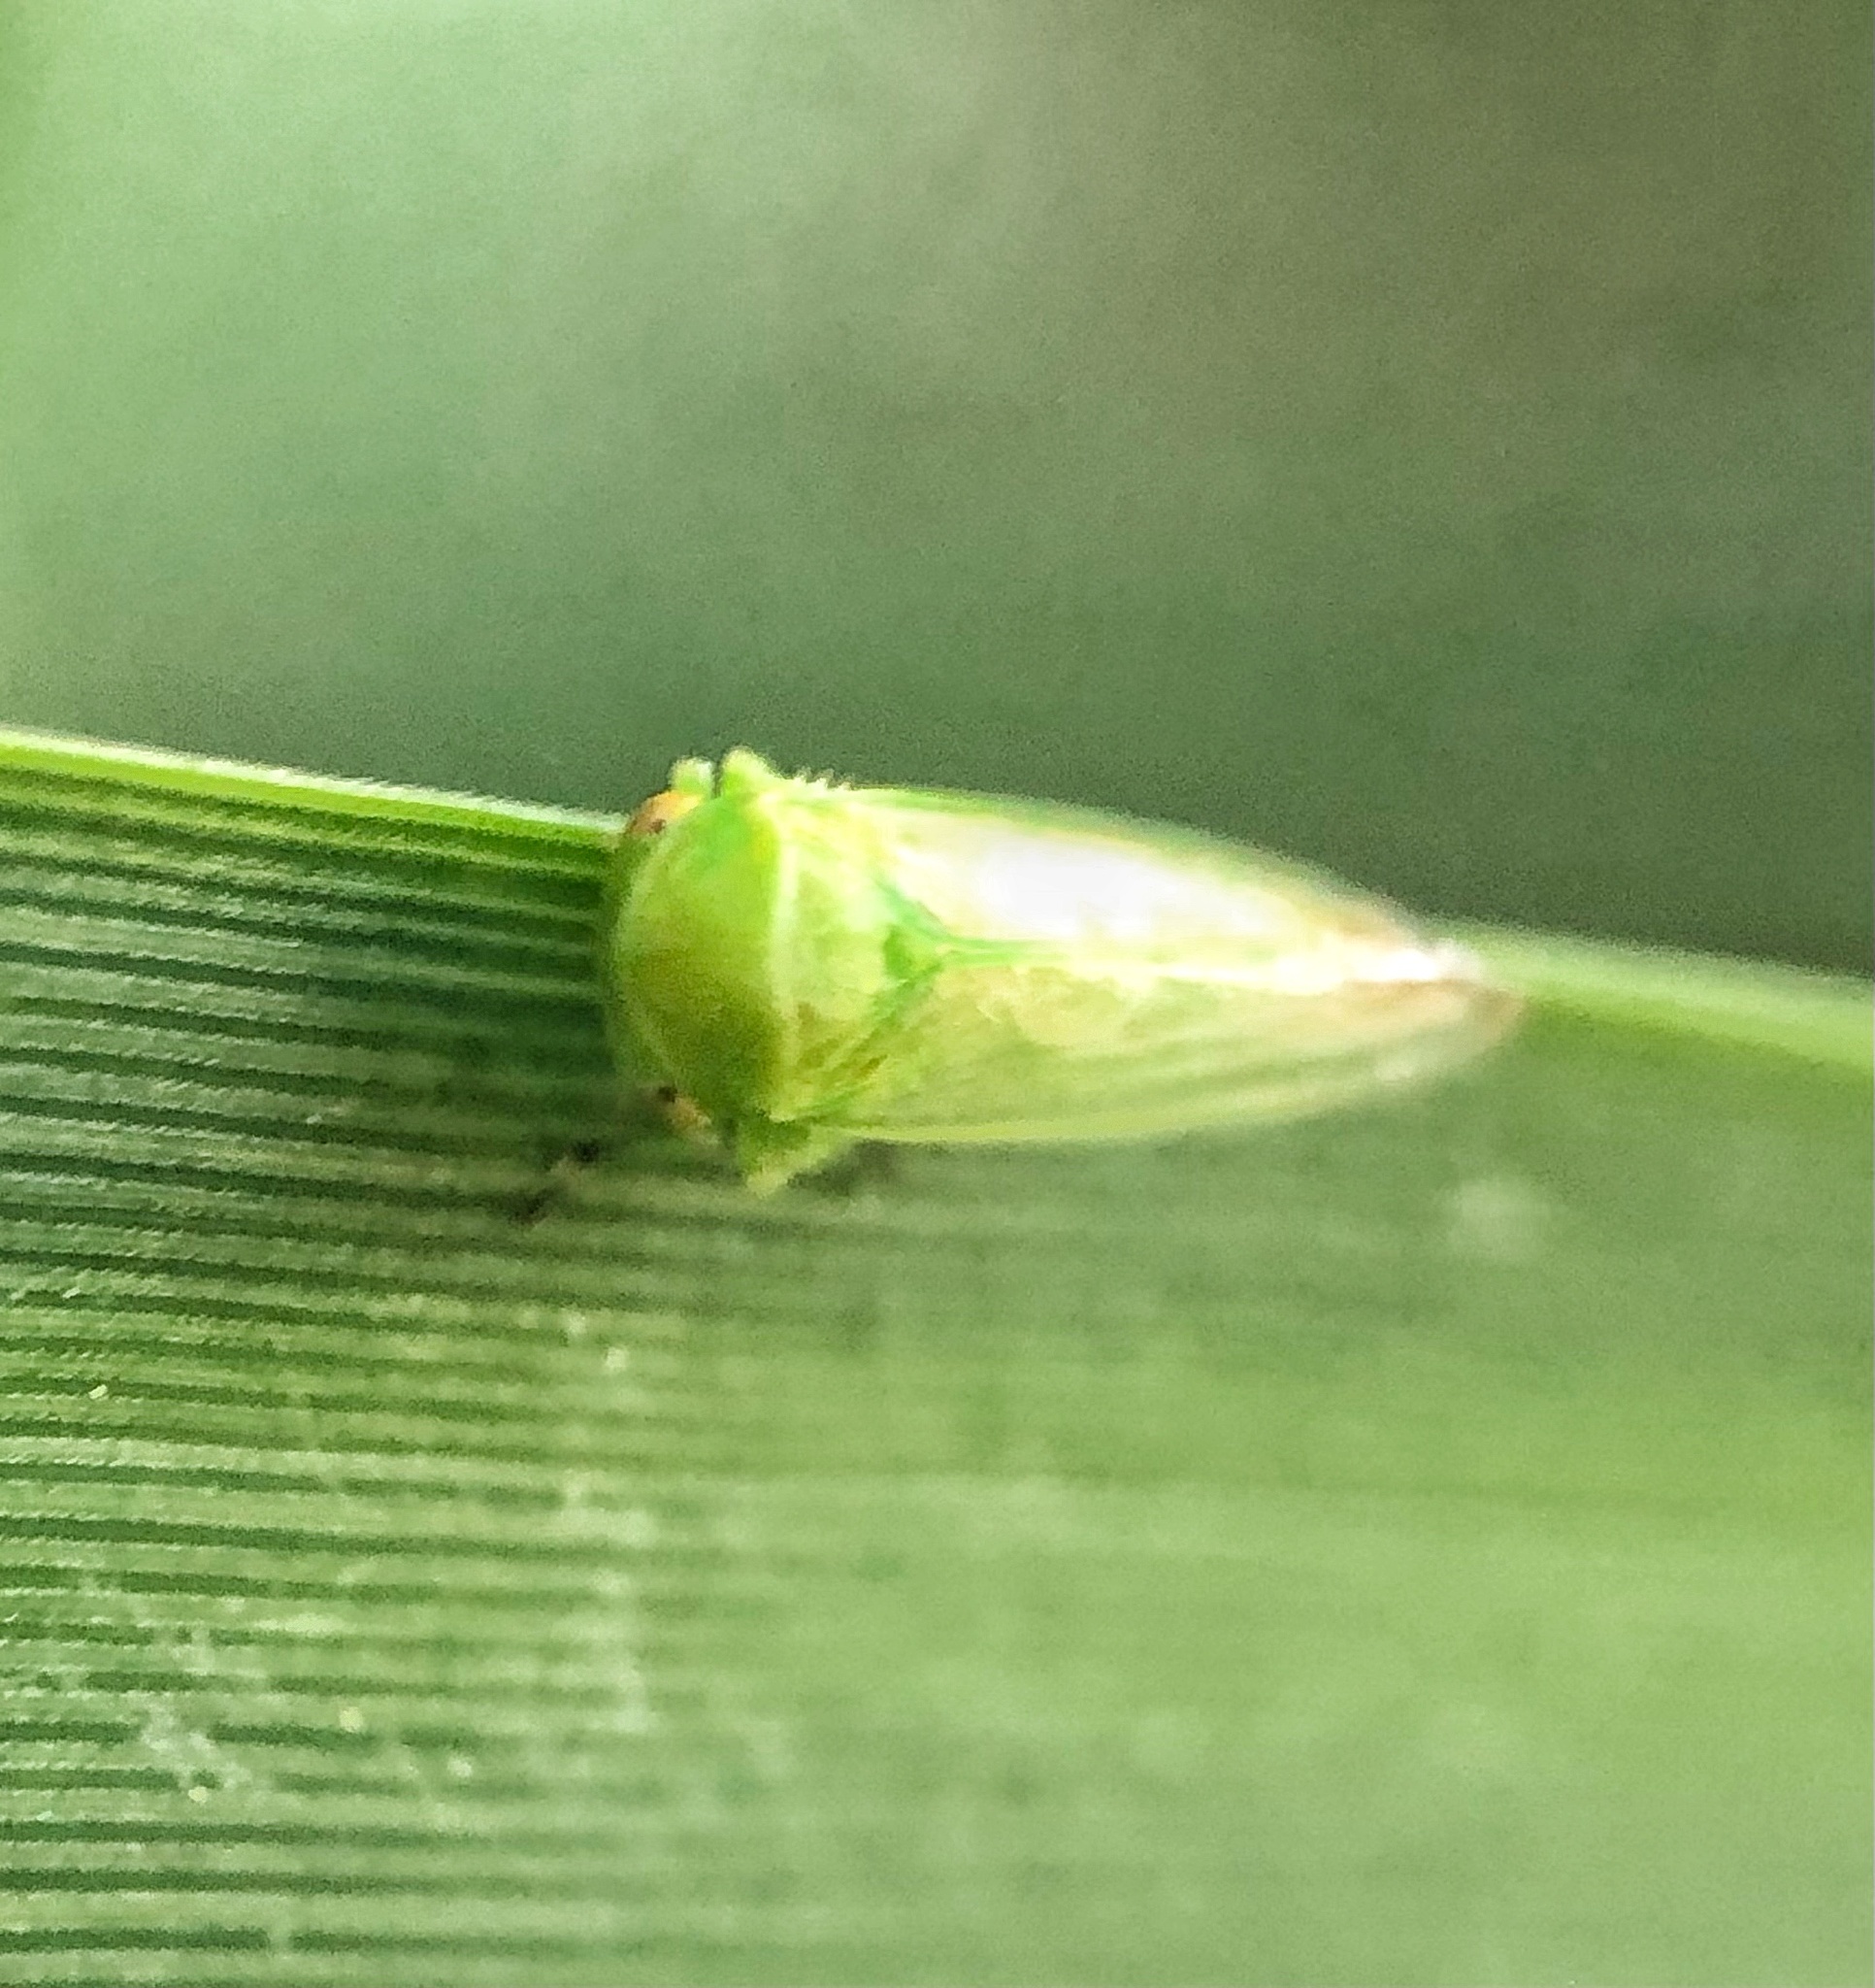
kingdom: Animalia
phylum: Arthropoda
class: Insecta
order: Hemiptera
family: Cicadellidae
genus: Macropsis
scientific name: Macropsis decisa
